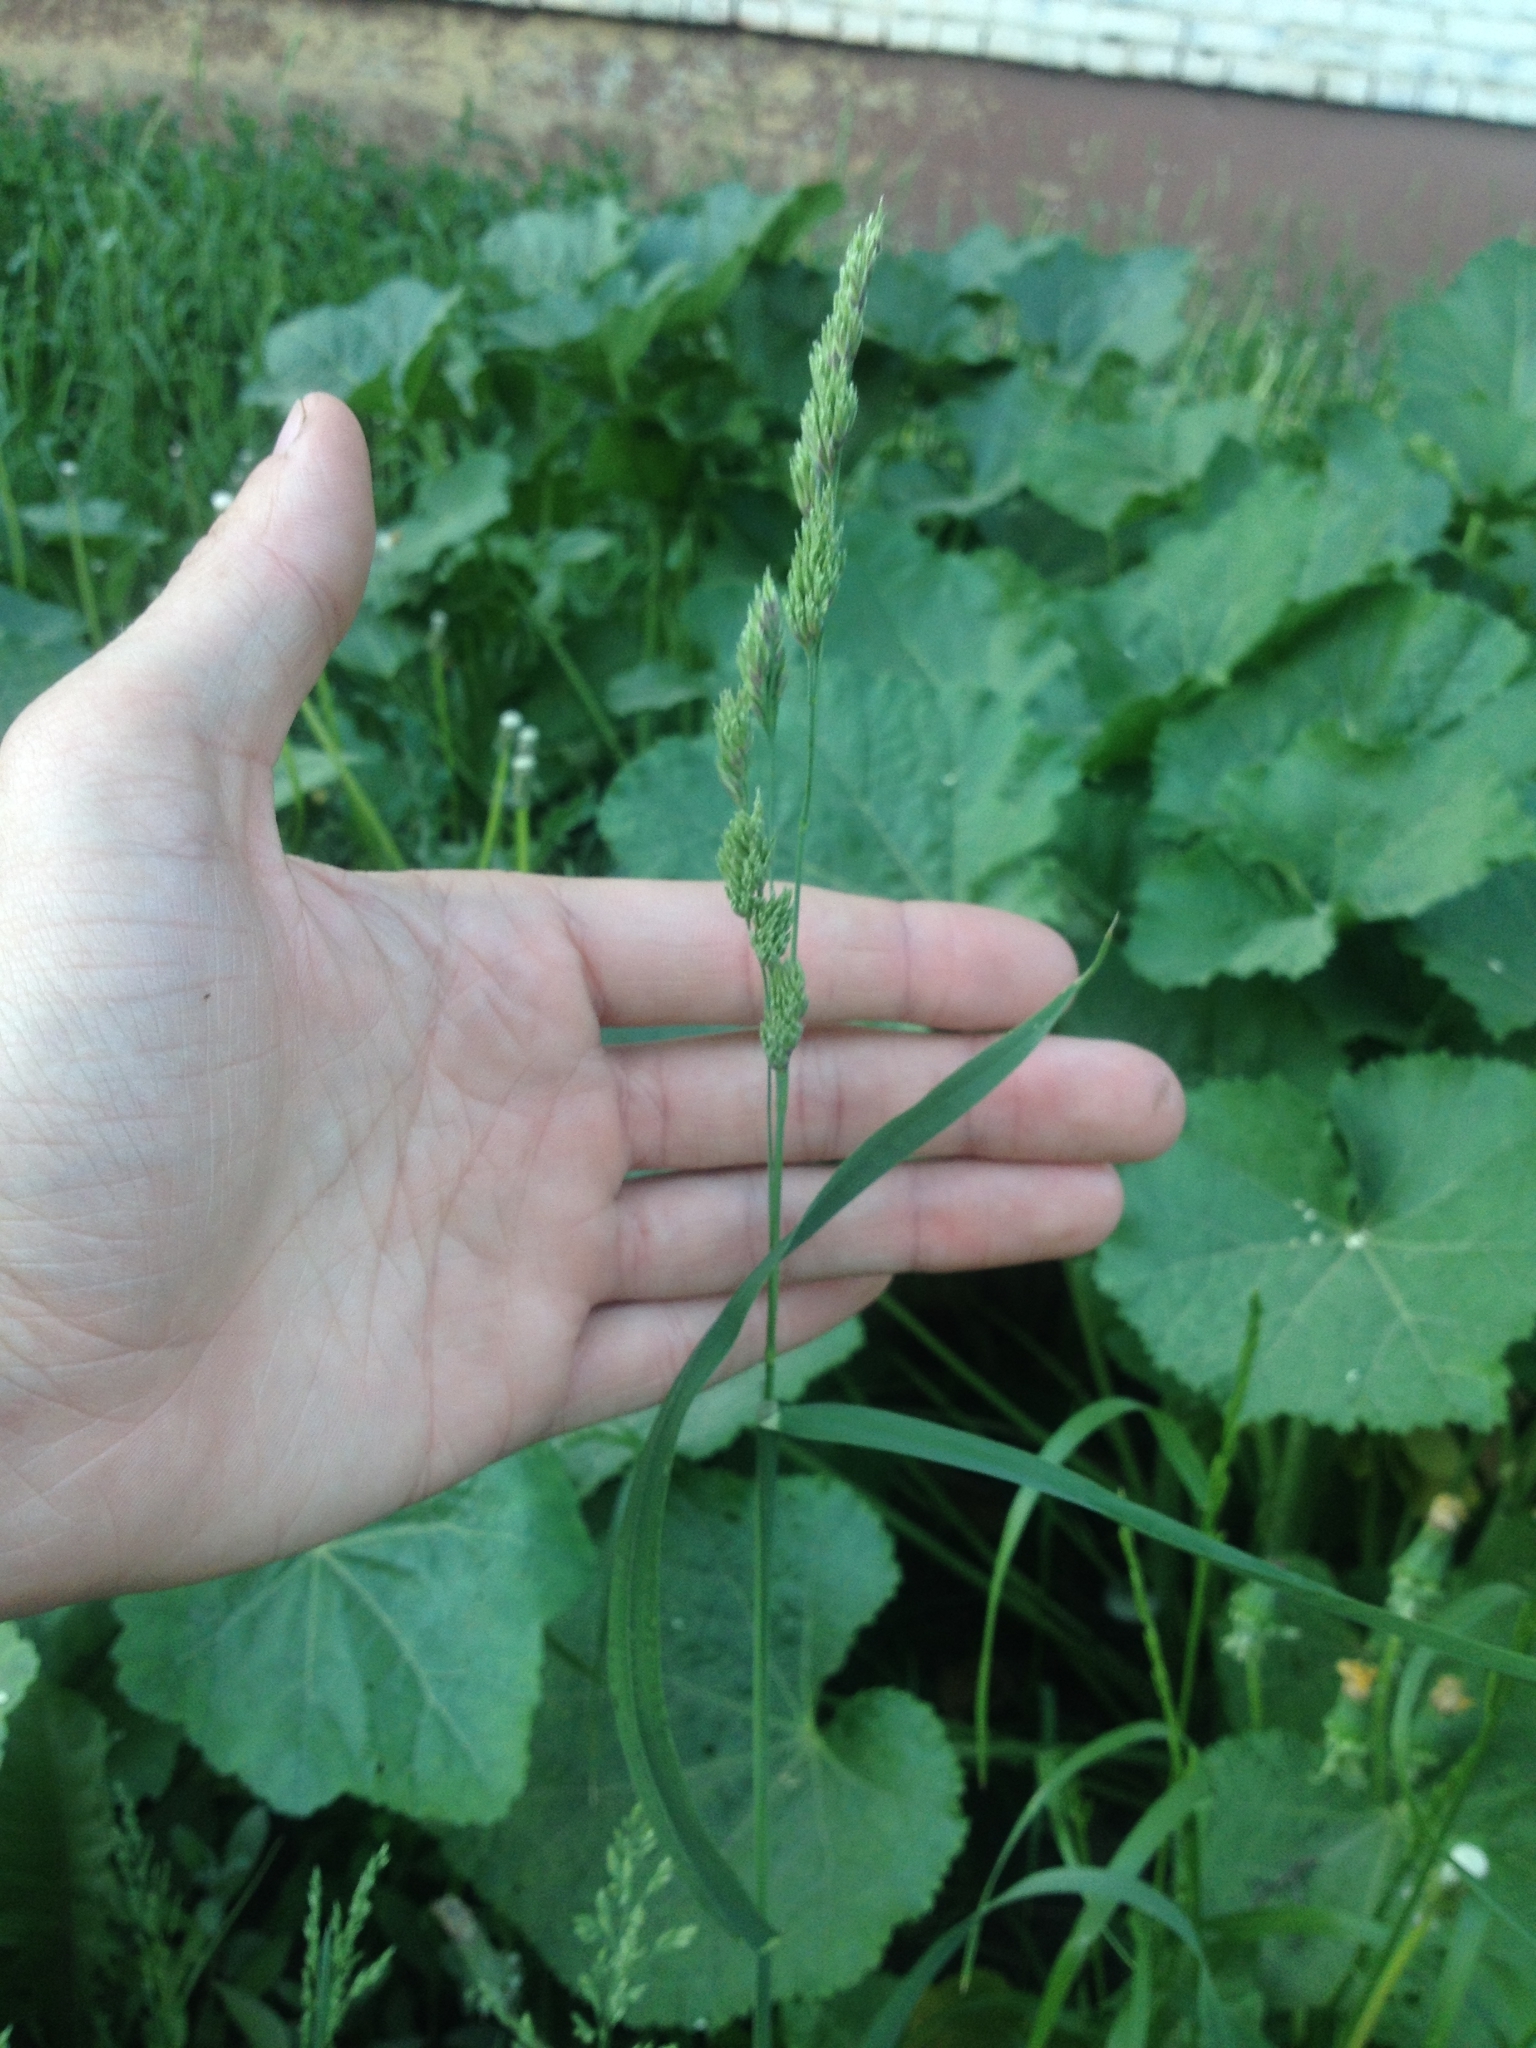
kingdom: Plantae
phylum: Tracheophyta
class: Liliopsida
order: Poales
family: Poaceae
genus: Dactylis
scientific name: Dactylis glomerata
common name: Orchardgrass
